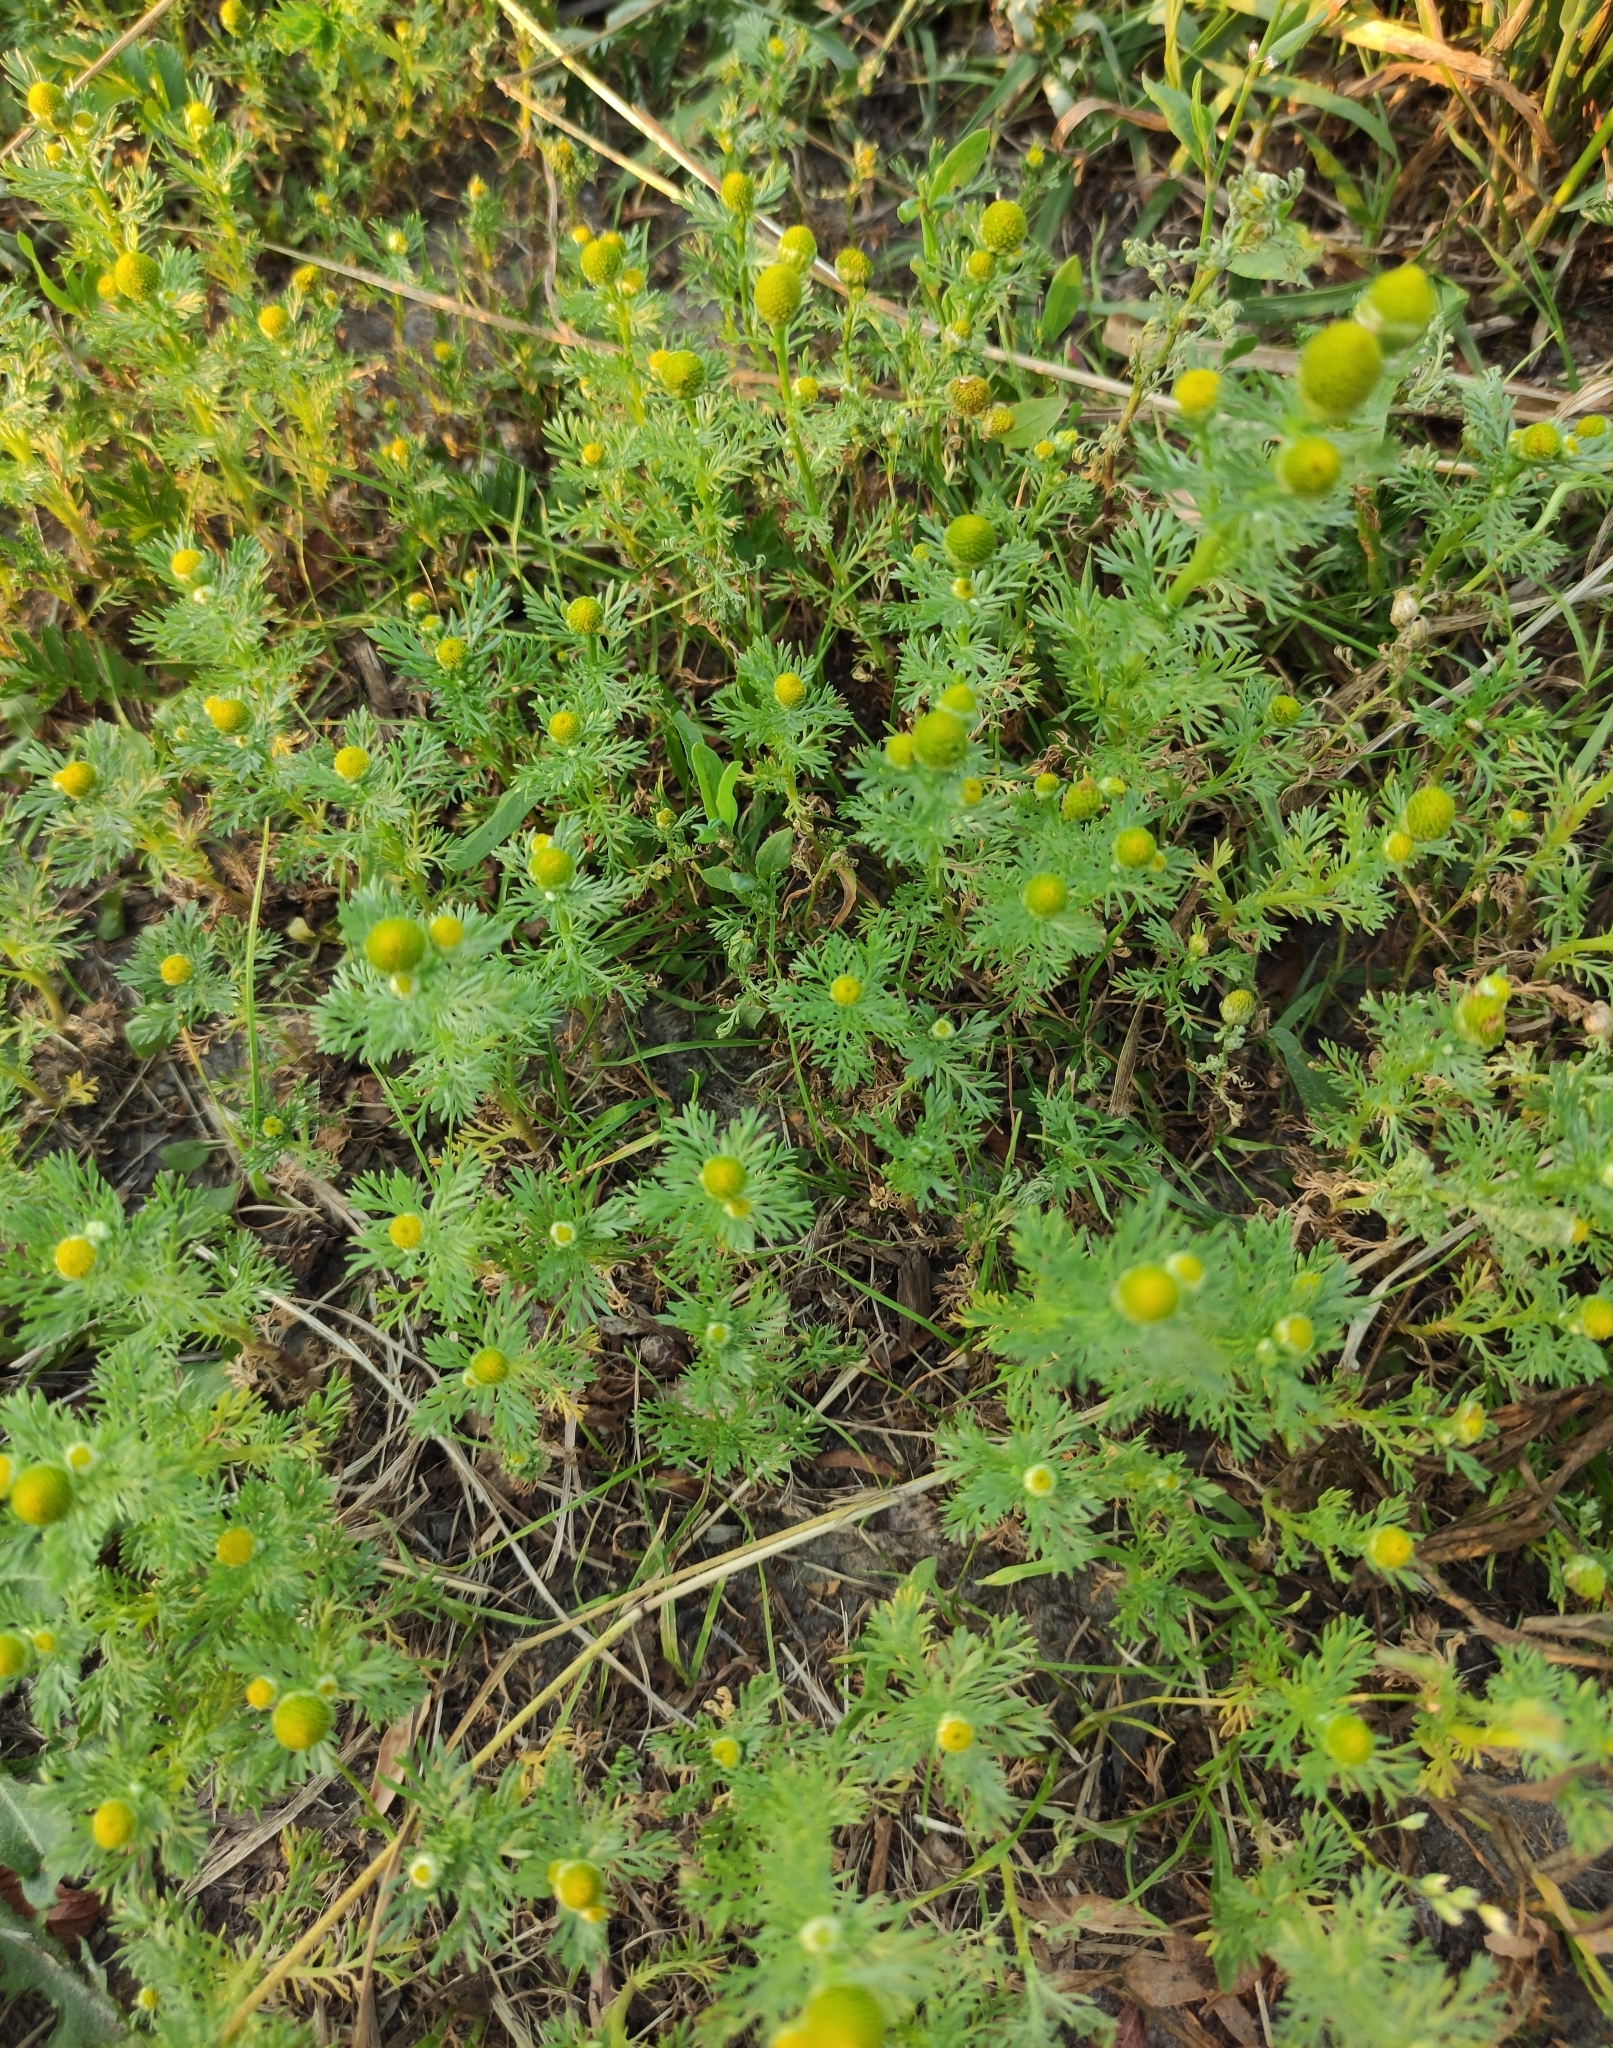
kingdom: Plantae
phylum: Tracheophyta
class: Magnoliopsida
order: Asterales
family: Asteraceae
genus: Matricaria
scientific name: Matricaria discoidea
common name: Disc mayweed
